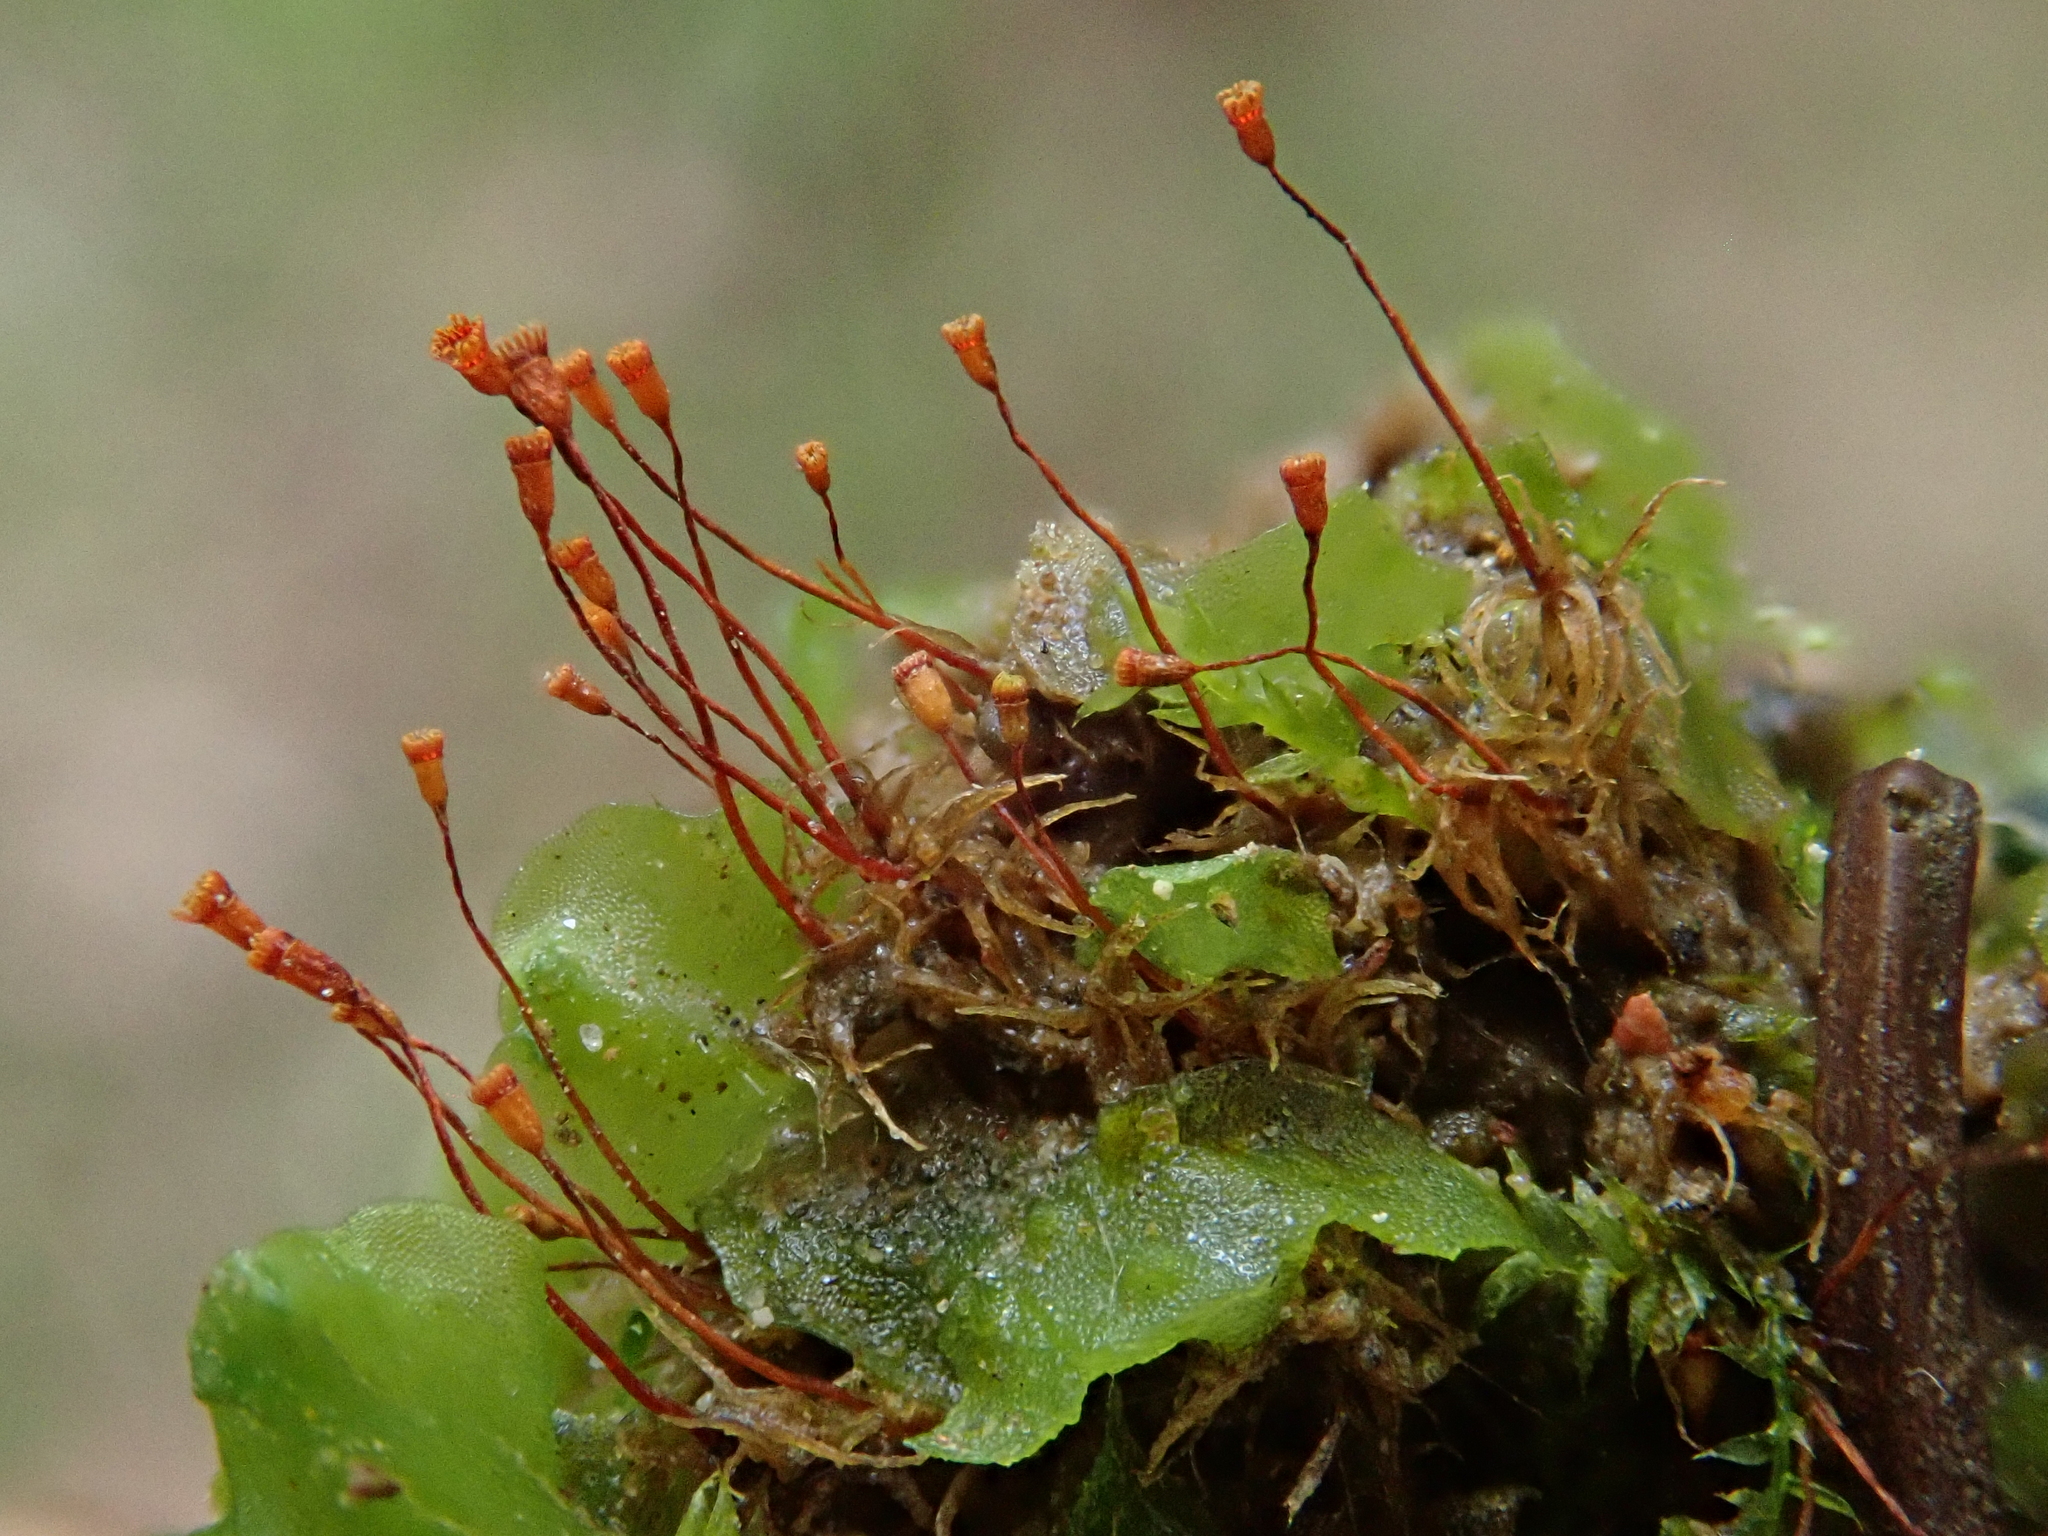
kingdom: Plantae
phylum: Bryophyta
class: Bryopsida
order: Dicranales
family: Dicranellaceae
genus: Dicranella
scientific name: Dicranella varia
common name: Variable forklet moss
